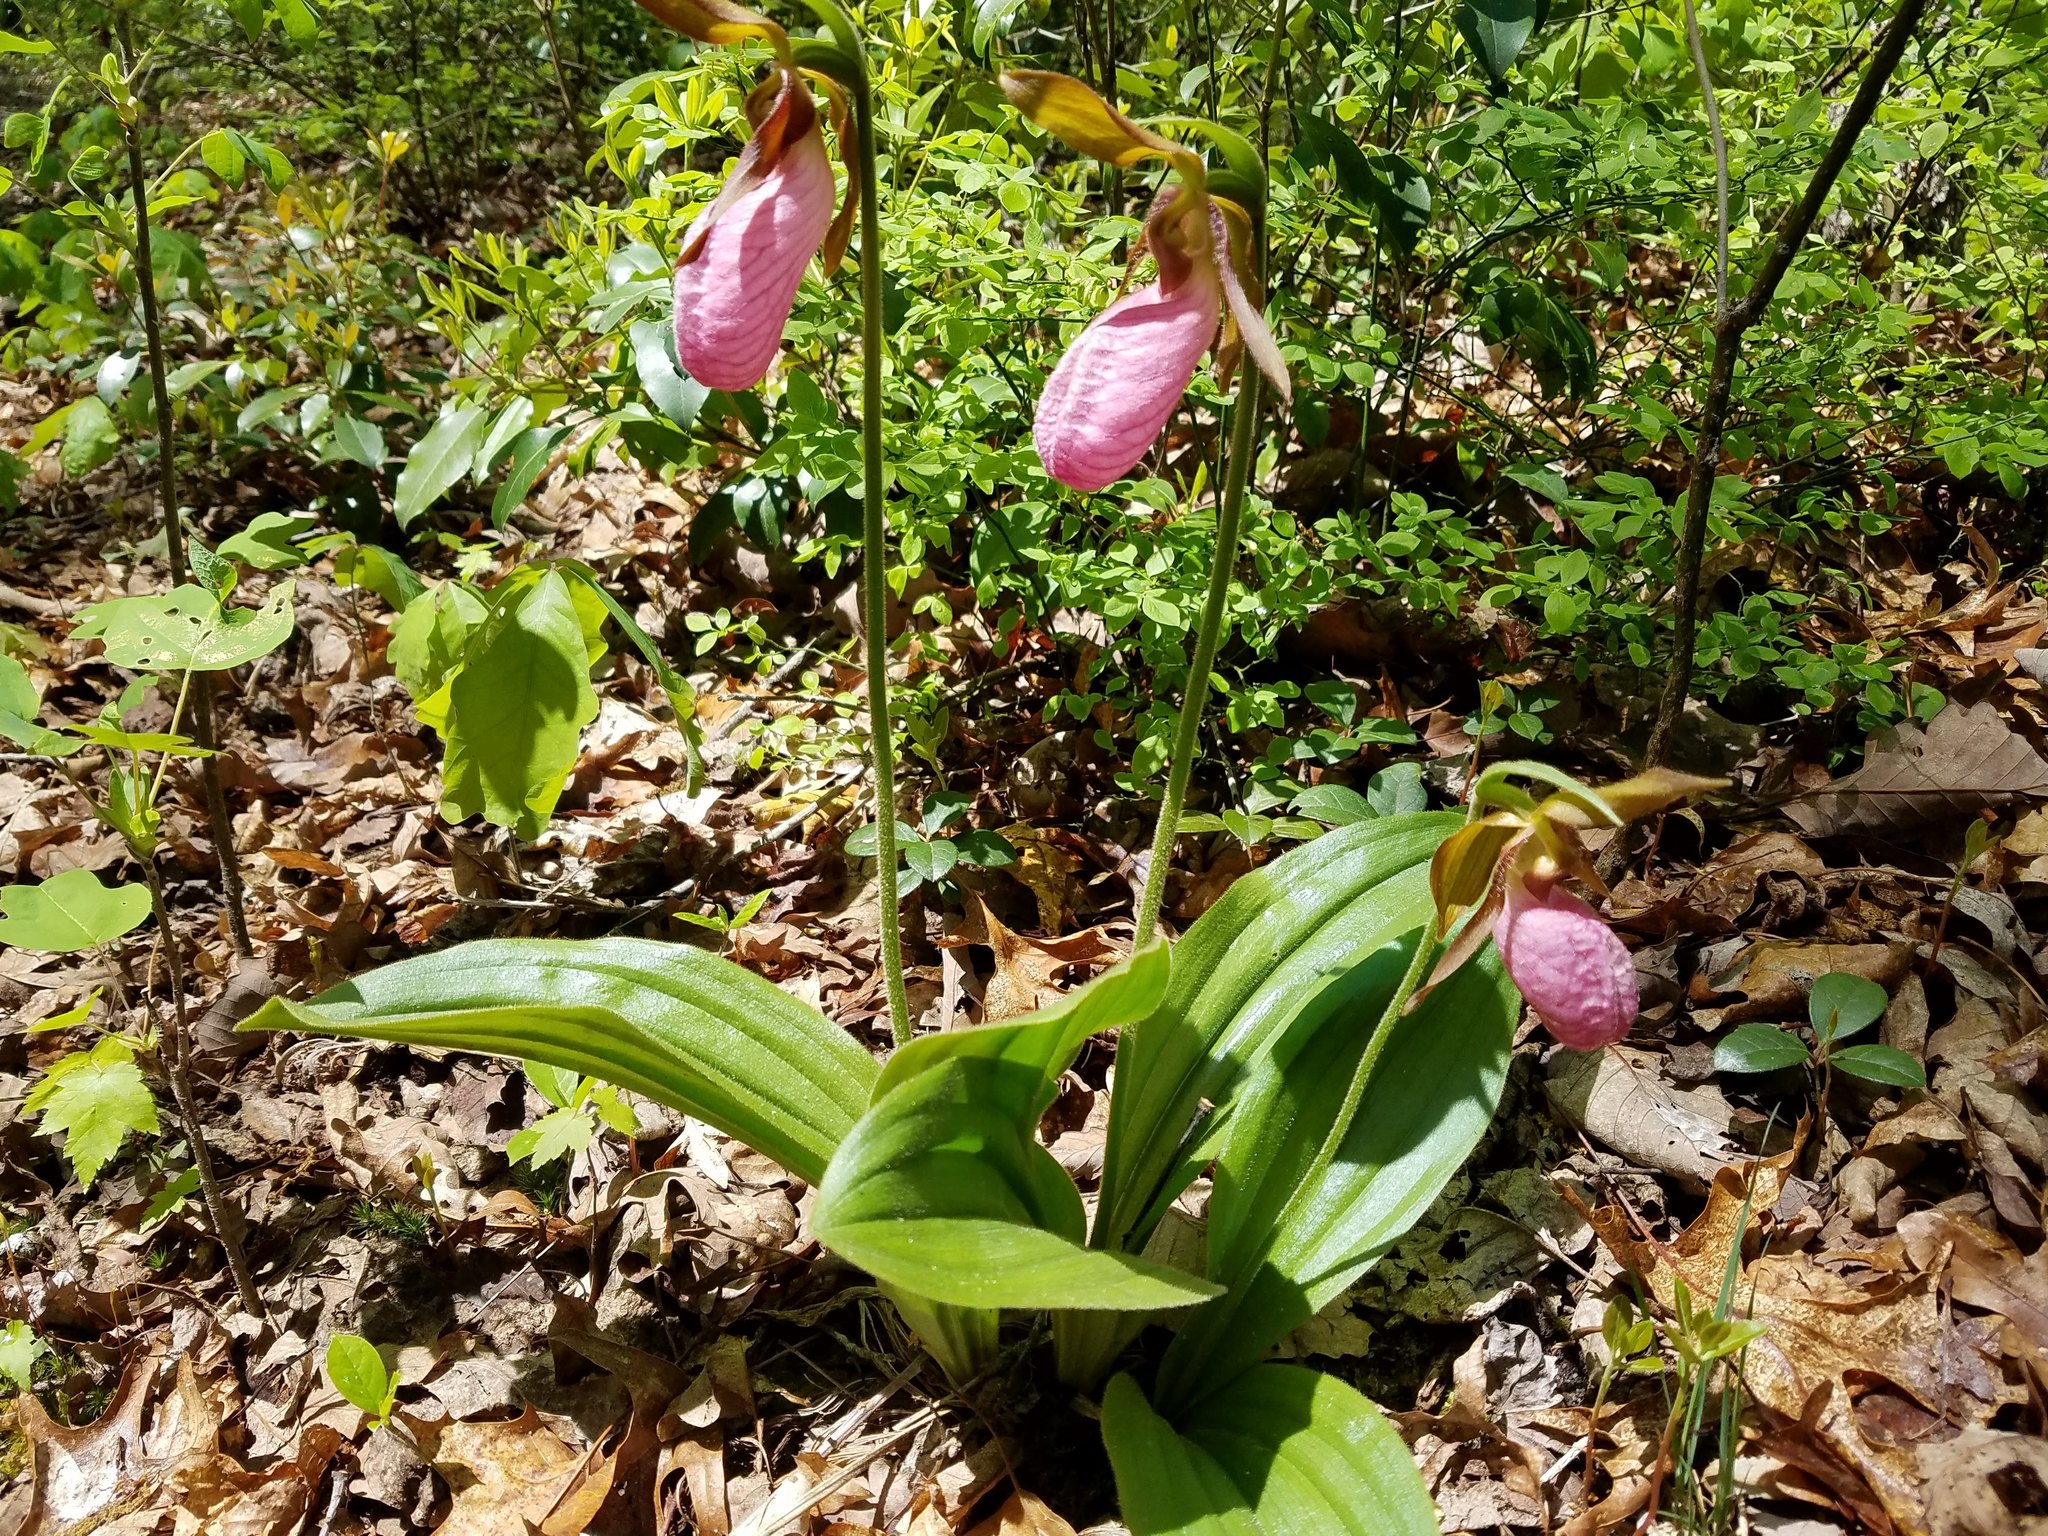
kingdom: Plantae
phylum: Tracheophyta
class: Liliopsida
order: Asparagales
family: Orchidaceae
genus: Cypripedium
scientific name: Cypripedium acaule
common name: Pink lady's-slipper
